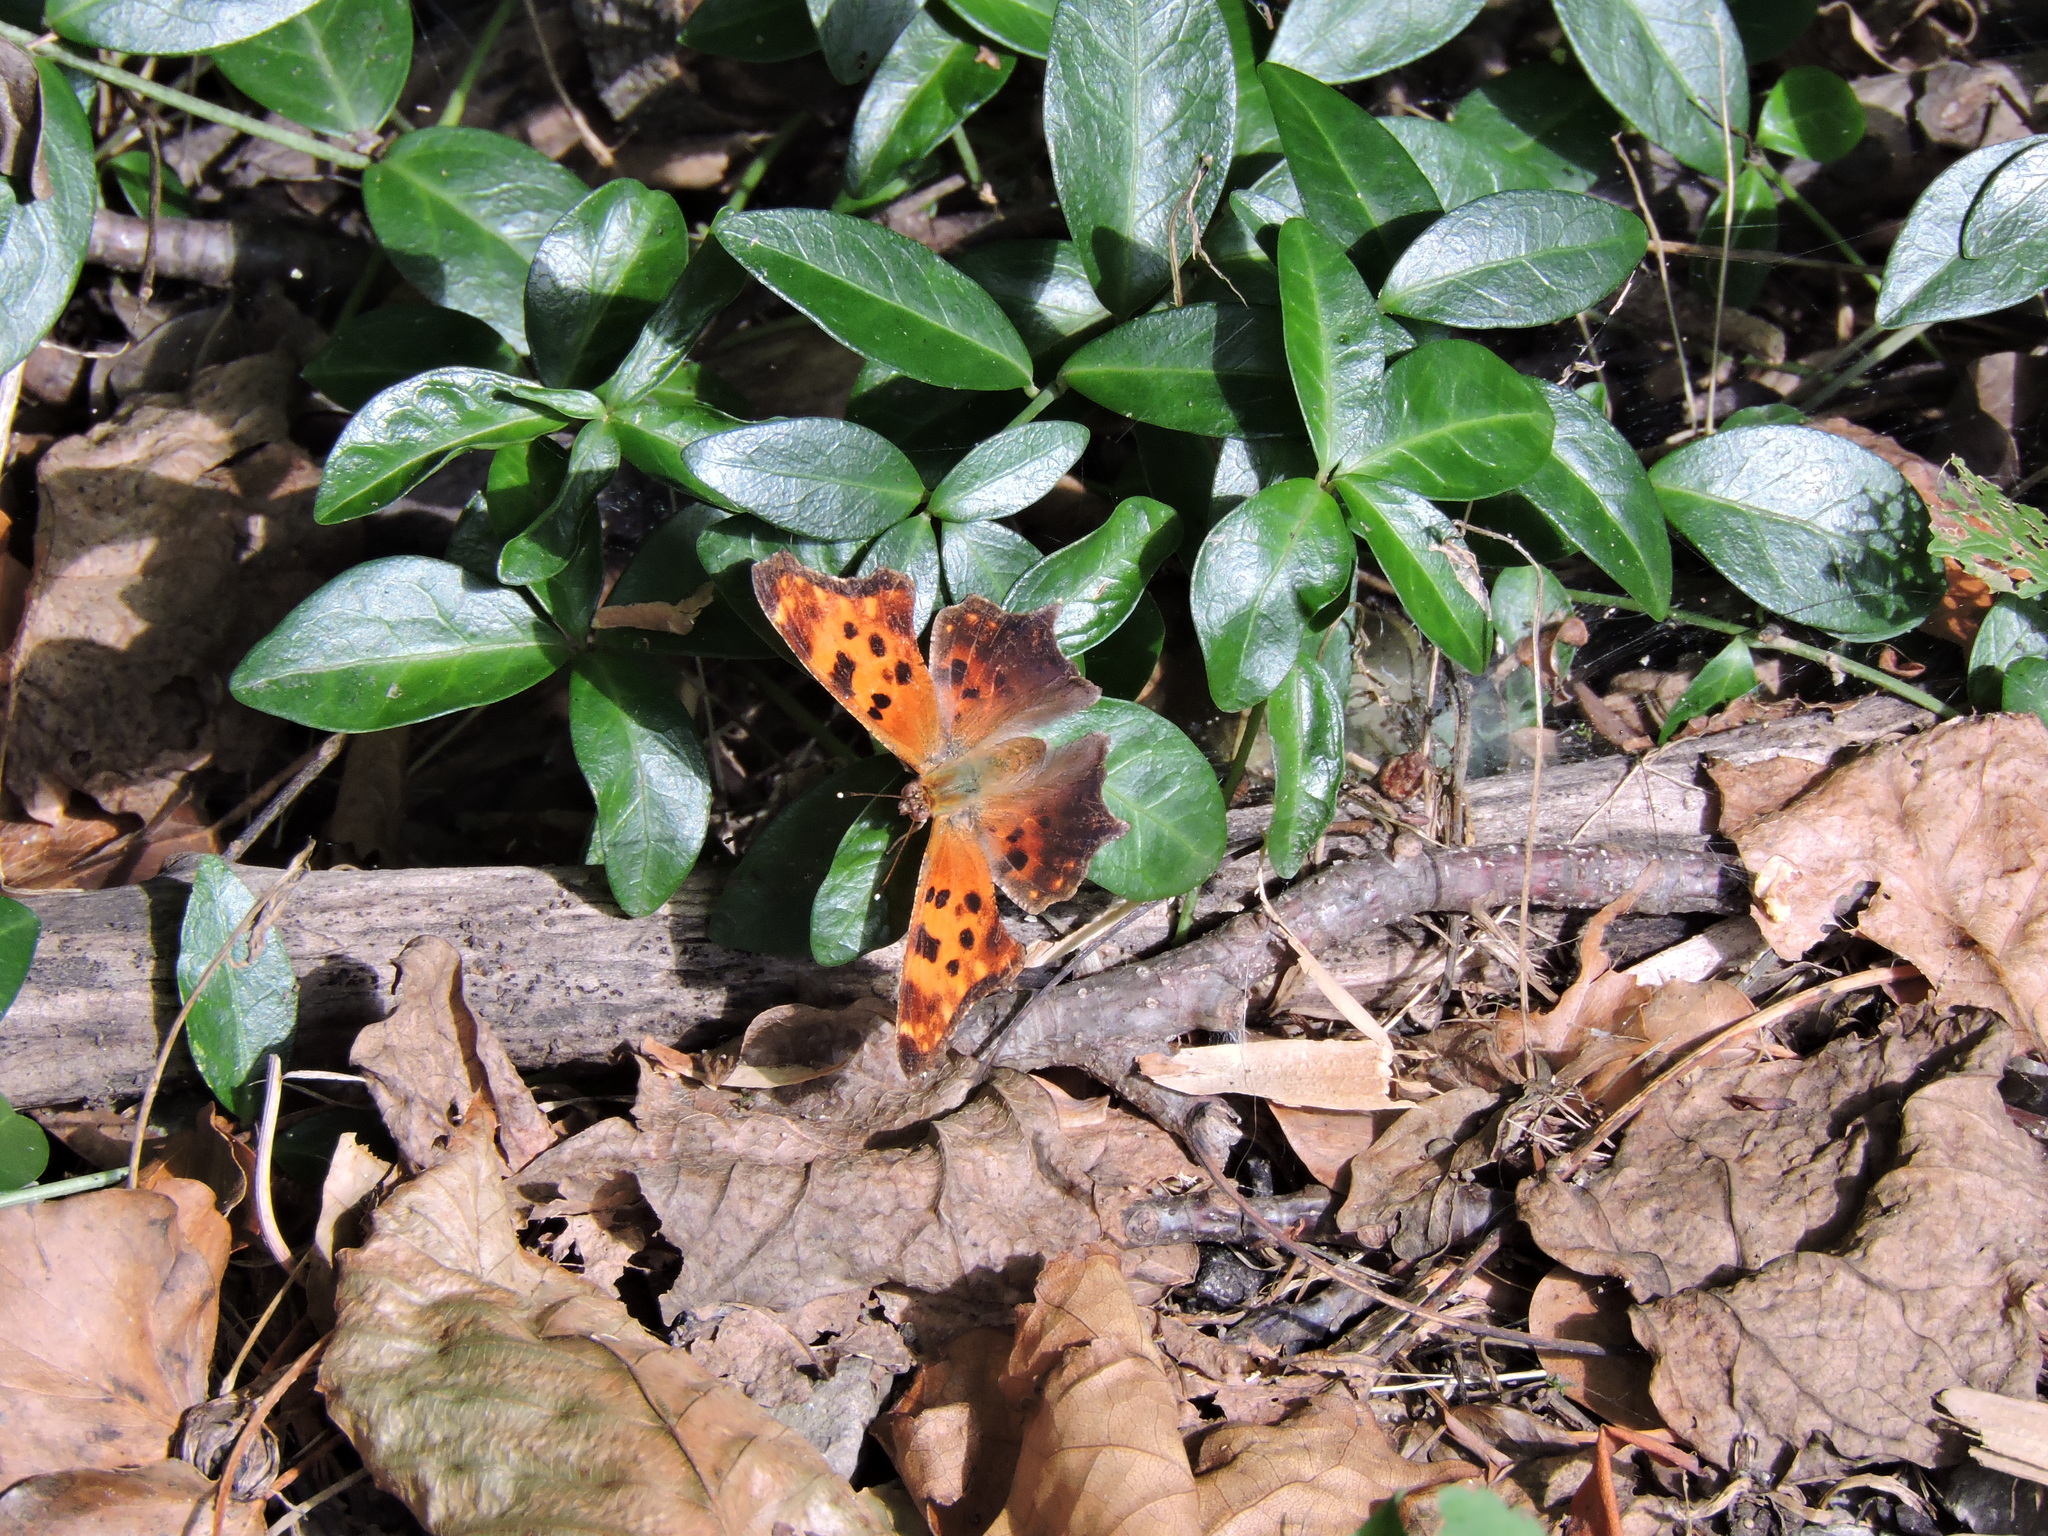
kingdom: Animalia
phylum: Arthropoda
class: Insecta
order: Lepidoptera
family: Nymphalidae
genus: Polygonia
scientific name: Polygonia comma
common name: Eastern comma
